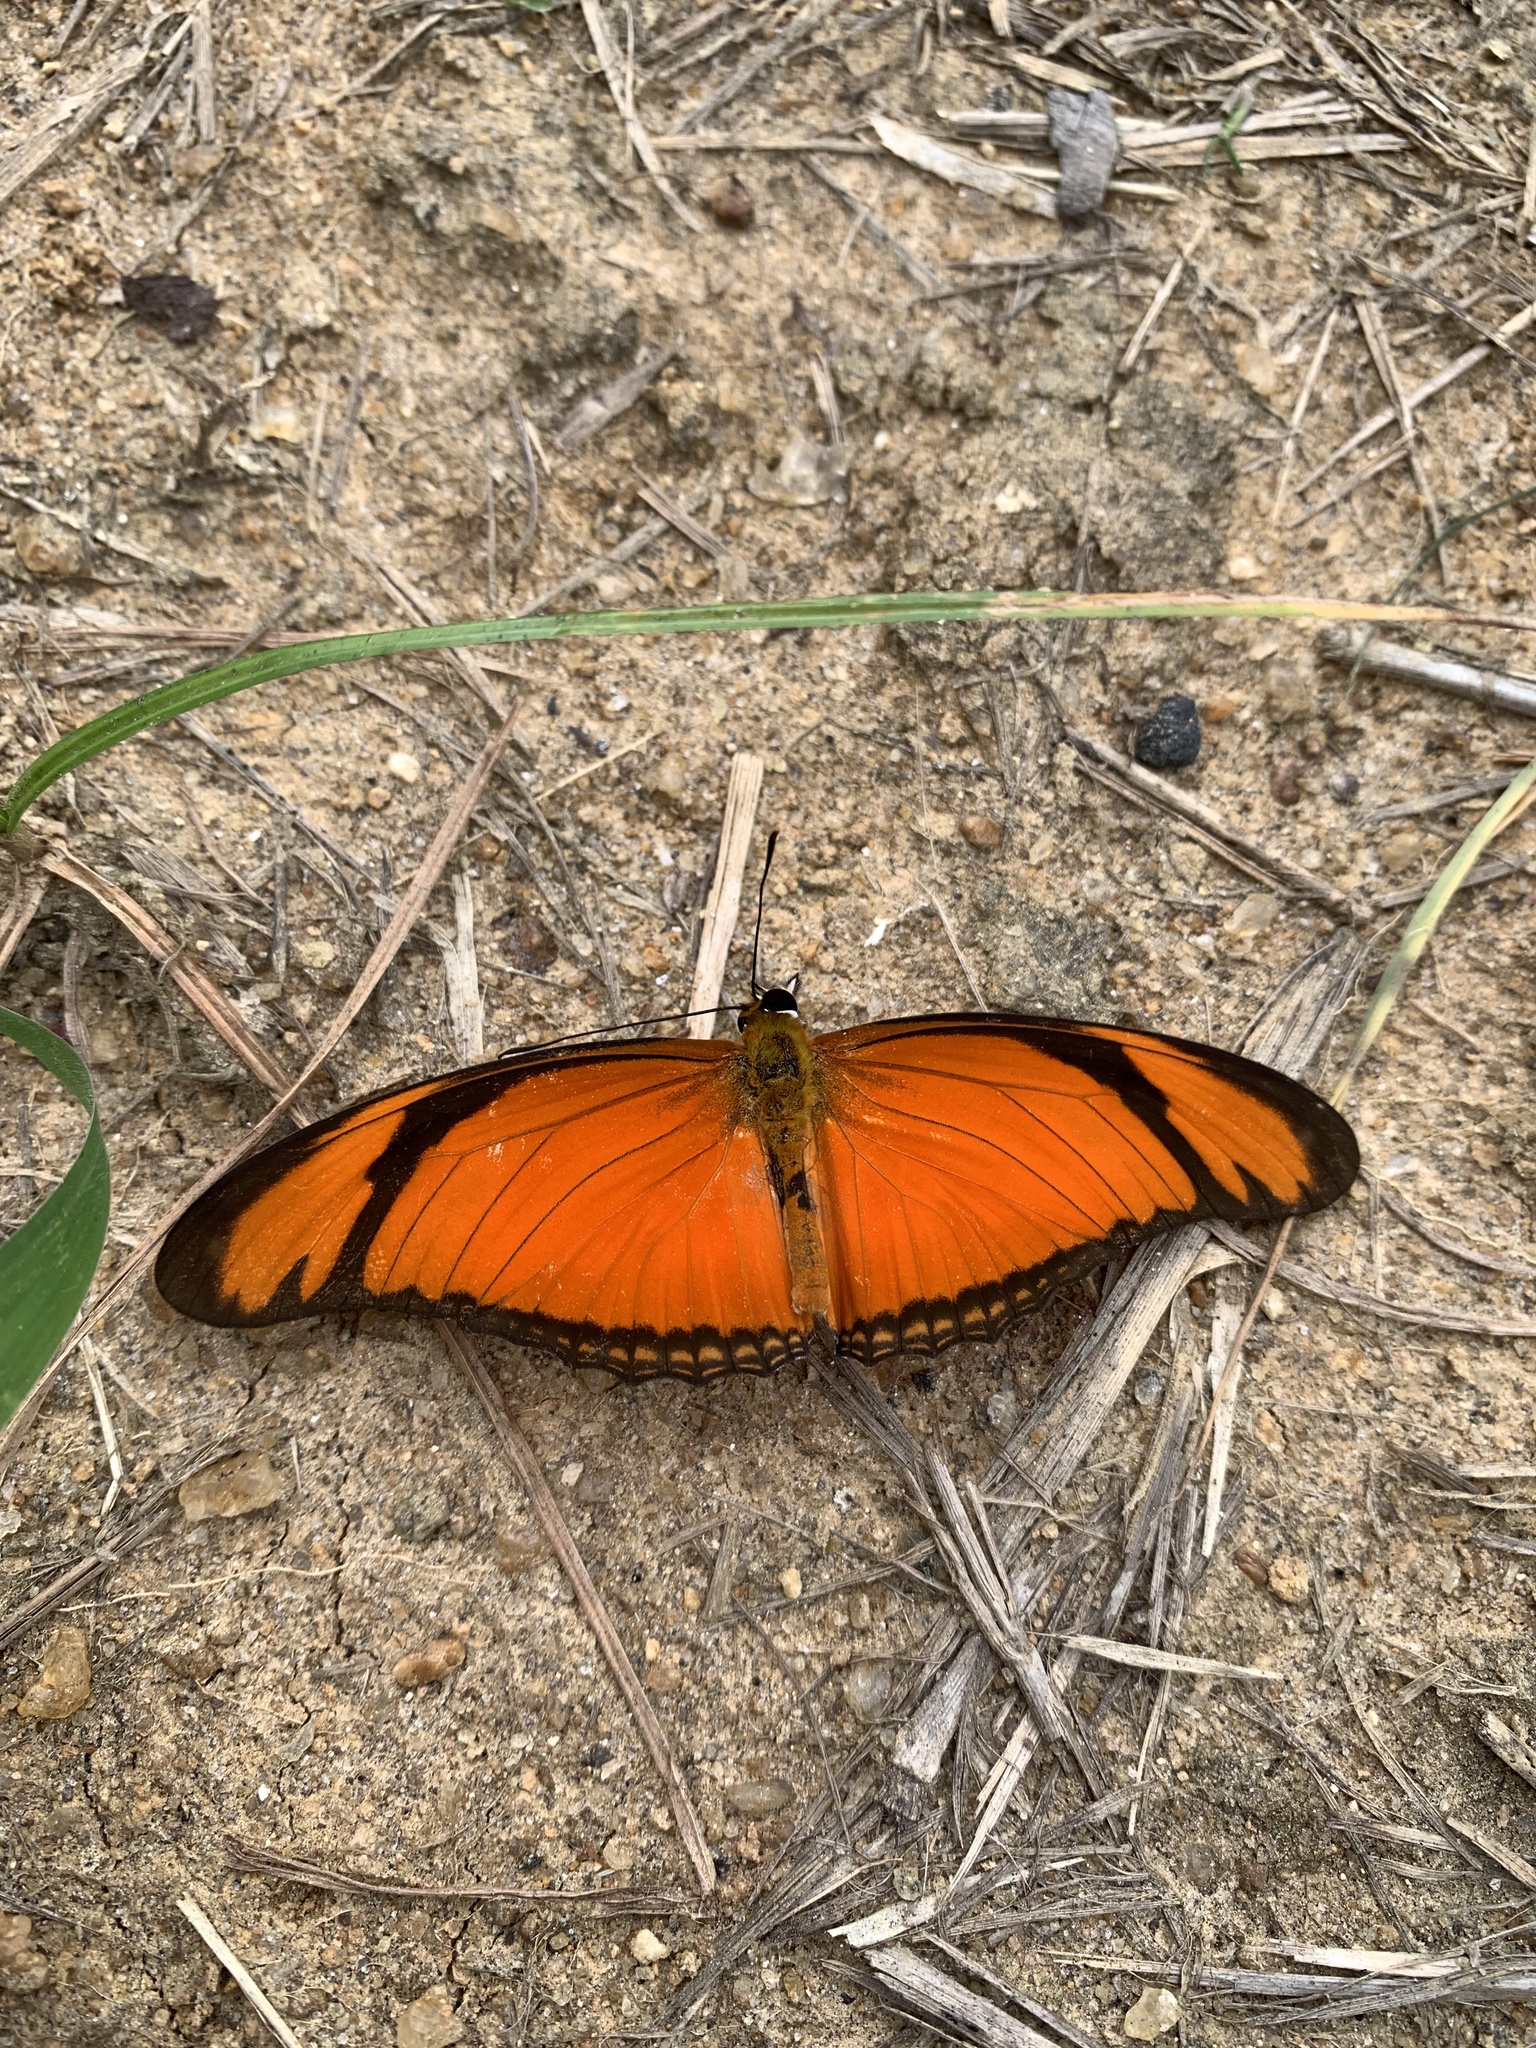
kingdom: Animalia
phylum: Arthropoda
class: Insecta
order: Lepidoptera
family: Nymphalidae
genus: Dryas
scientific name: Dryas iulia
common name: Flambeau
